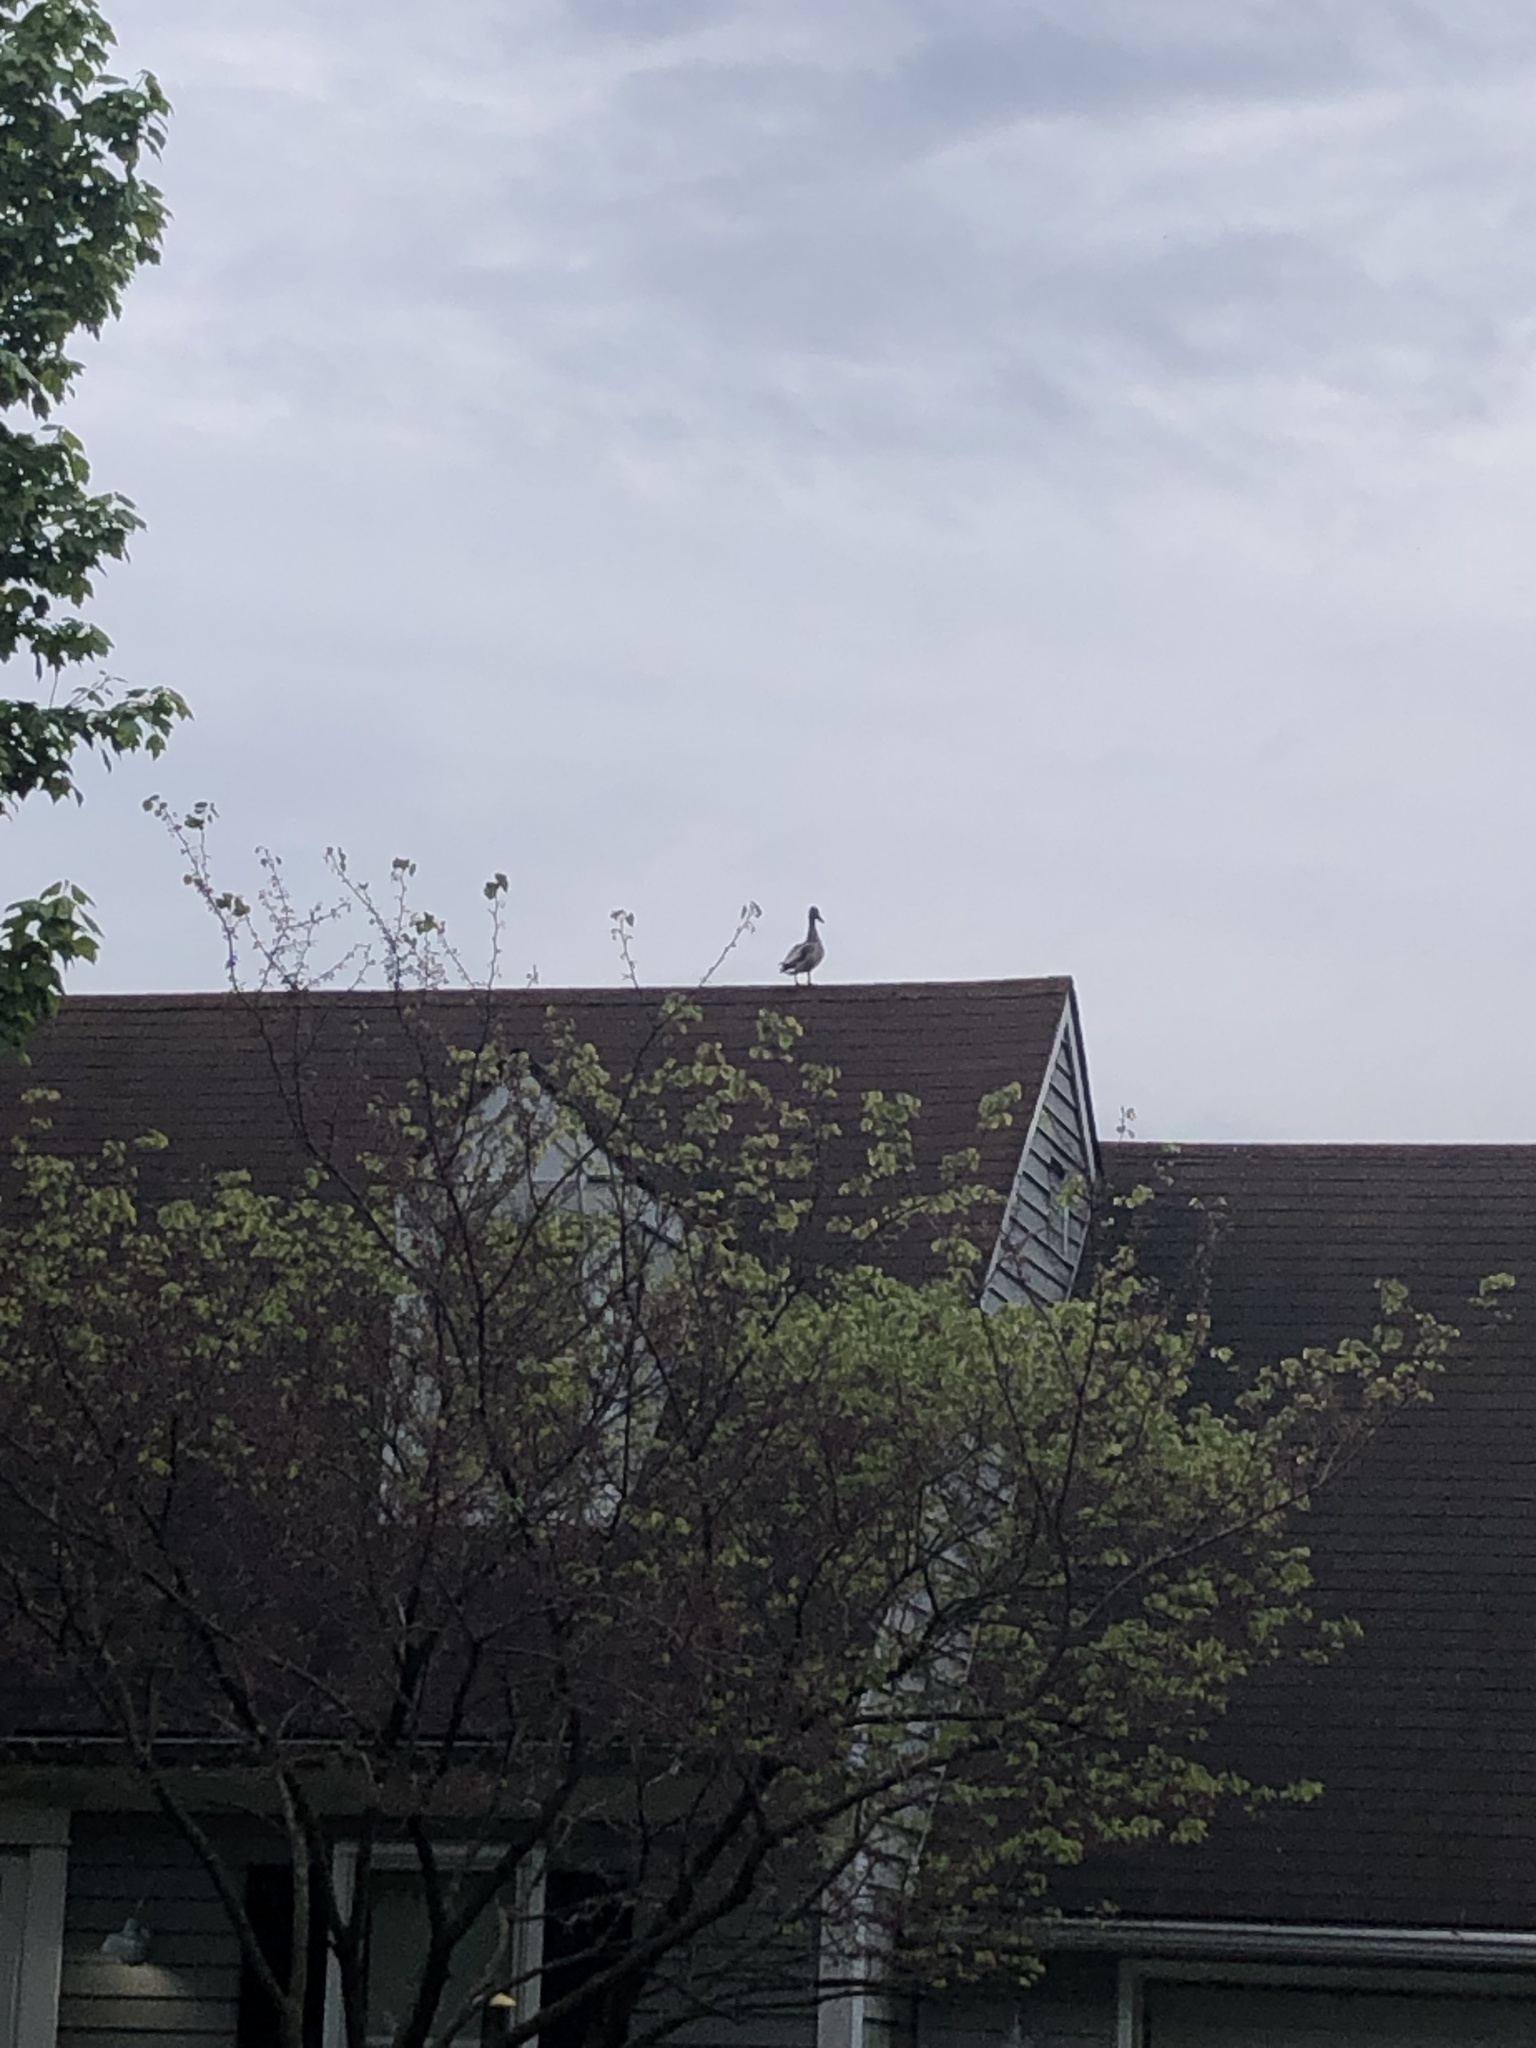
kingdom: Animalia
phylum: Chordata
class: Aves
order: Anseriformes
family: Anatidae
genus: Branta
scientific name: Branta canadensis
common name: Canada goose
